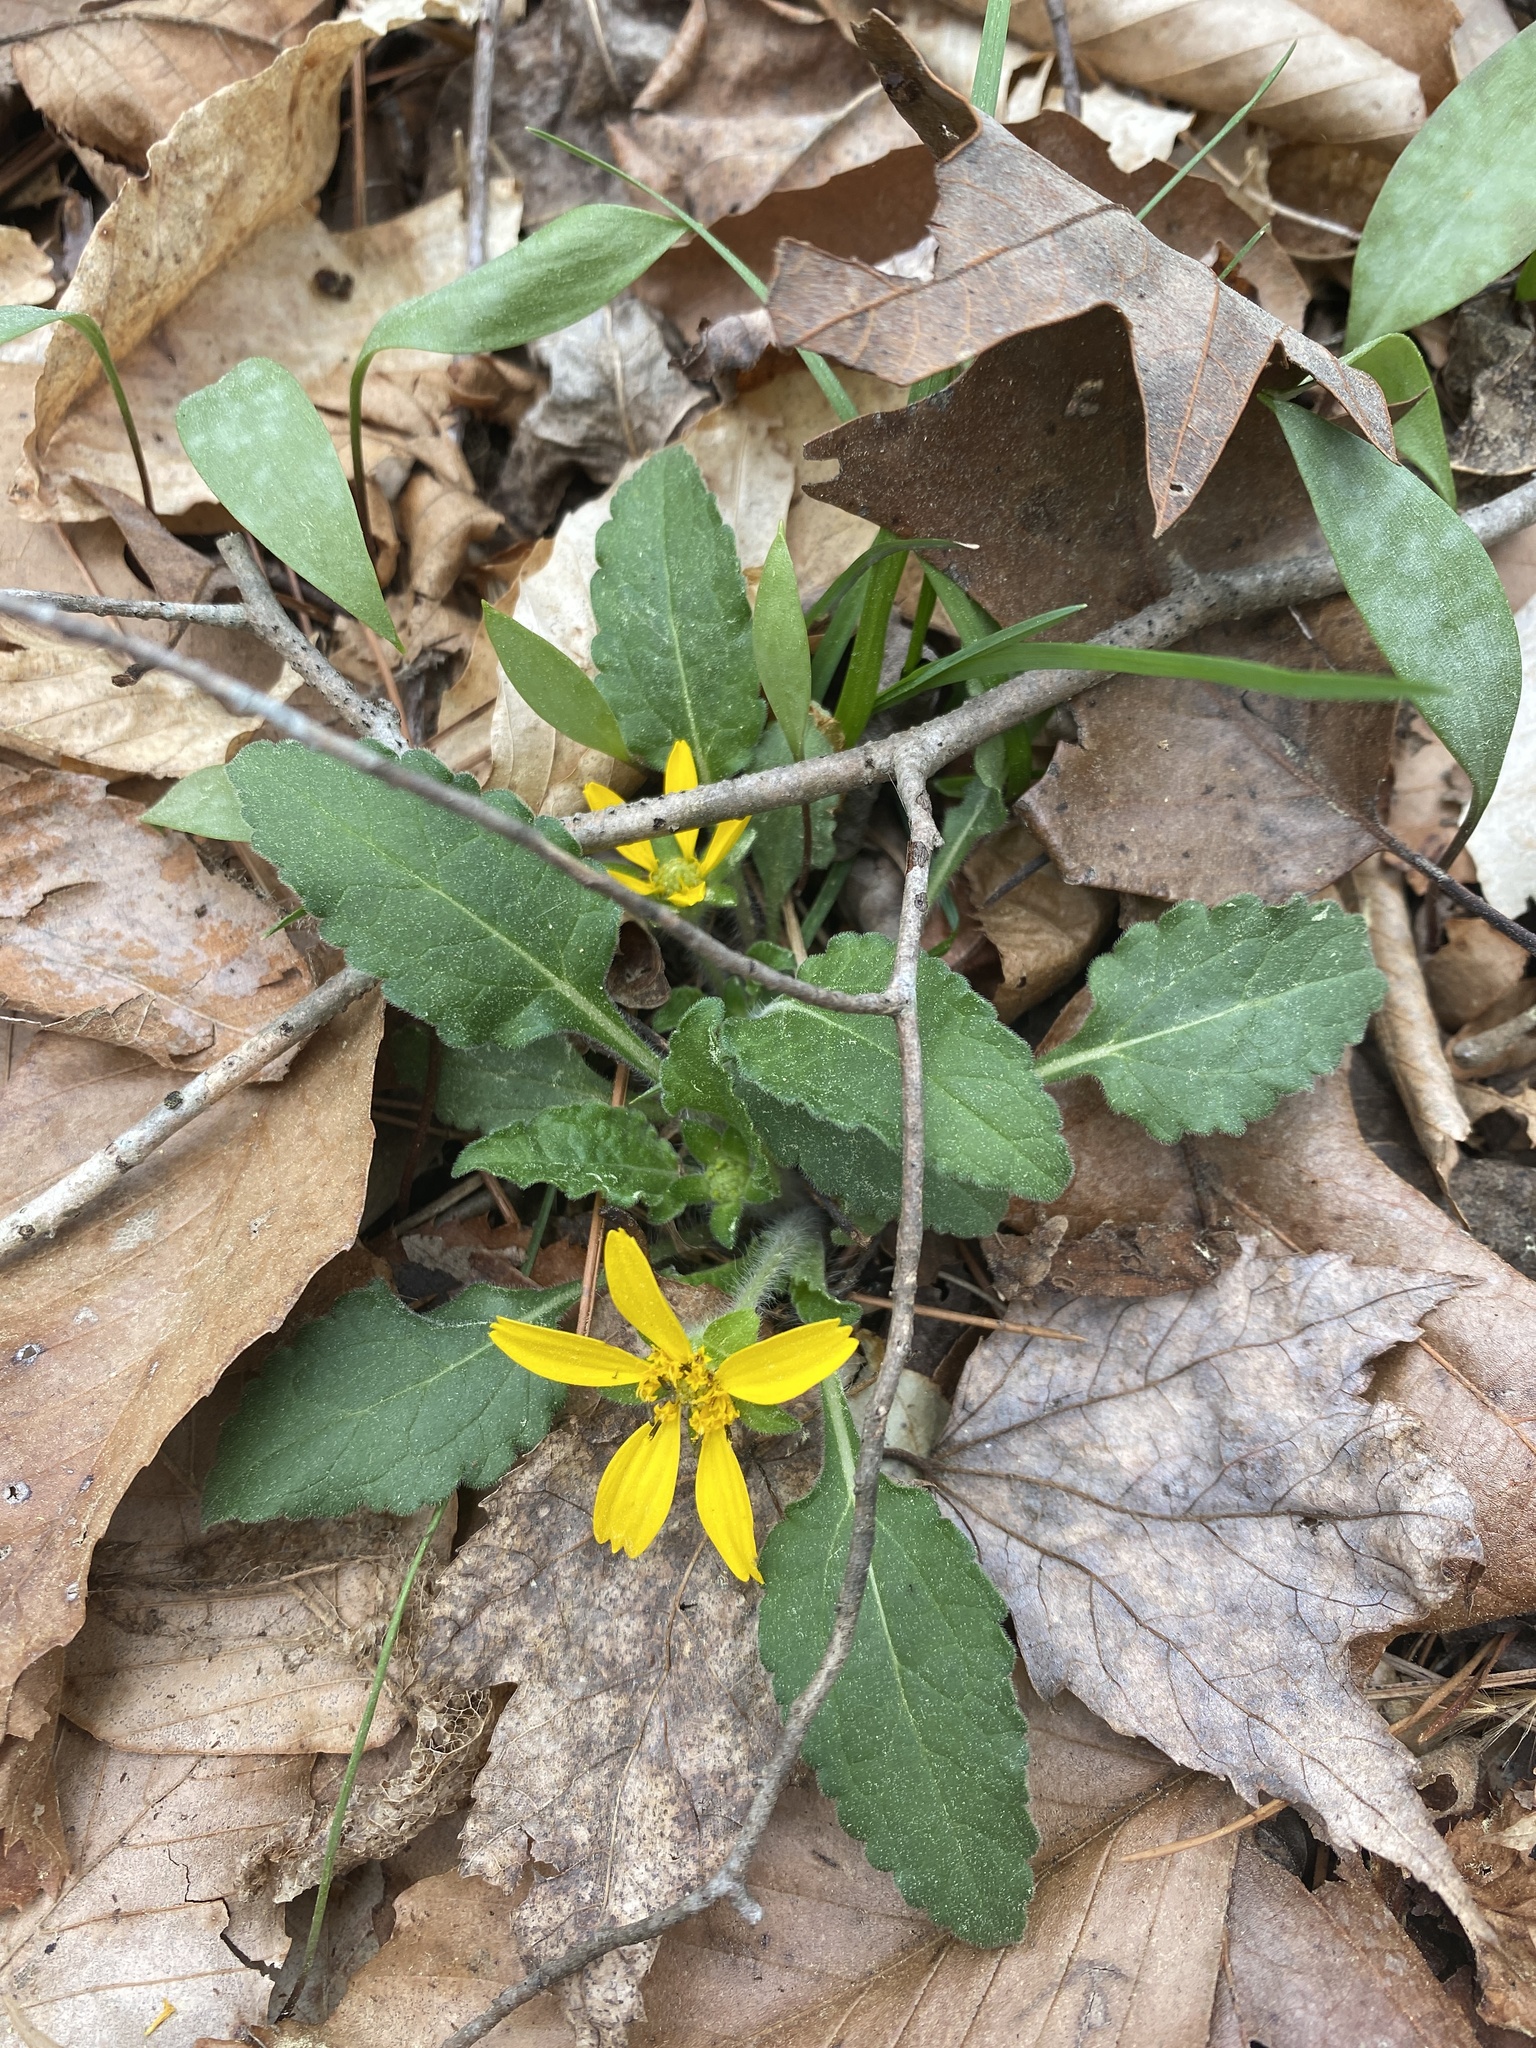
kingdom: Plantae
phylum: Tracheophyta
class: Magnoliopsida
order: Asterales
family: Asteraceae
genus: Chrysogonum
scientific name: Chrysogonum virginianum
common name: Golden-knee
